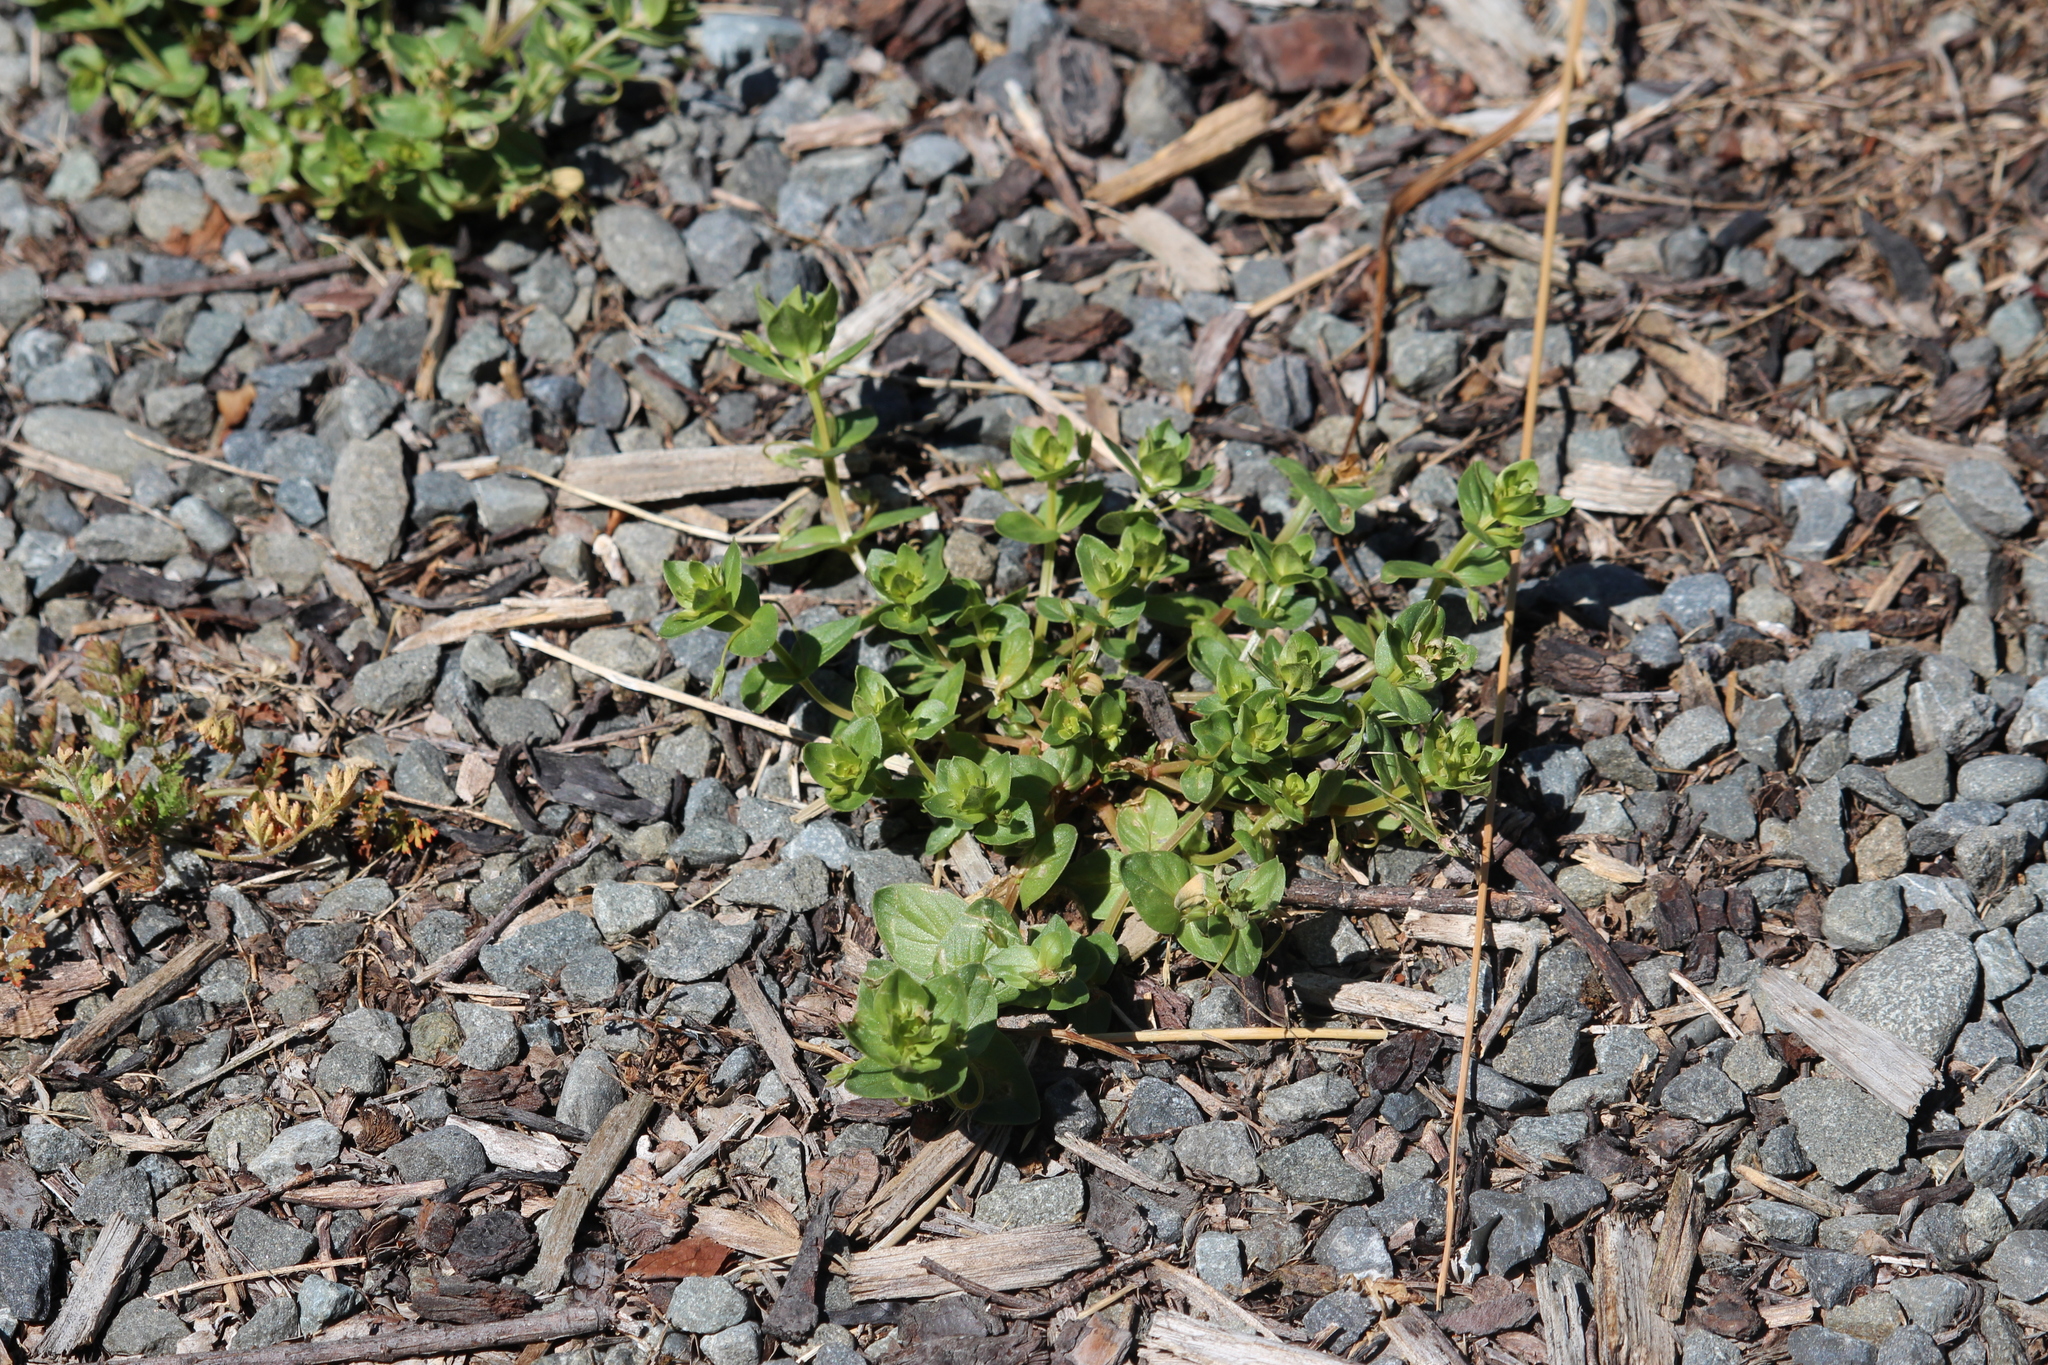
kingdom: Plantae
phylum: Tracheophyta
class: Magnoliopsida
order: Ericales
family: Primulaceae
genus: Lysimachia
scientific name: Lysimachia arvensis
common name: Scarlet pimpernel
